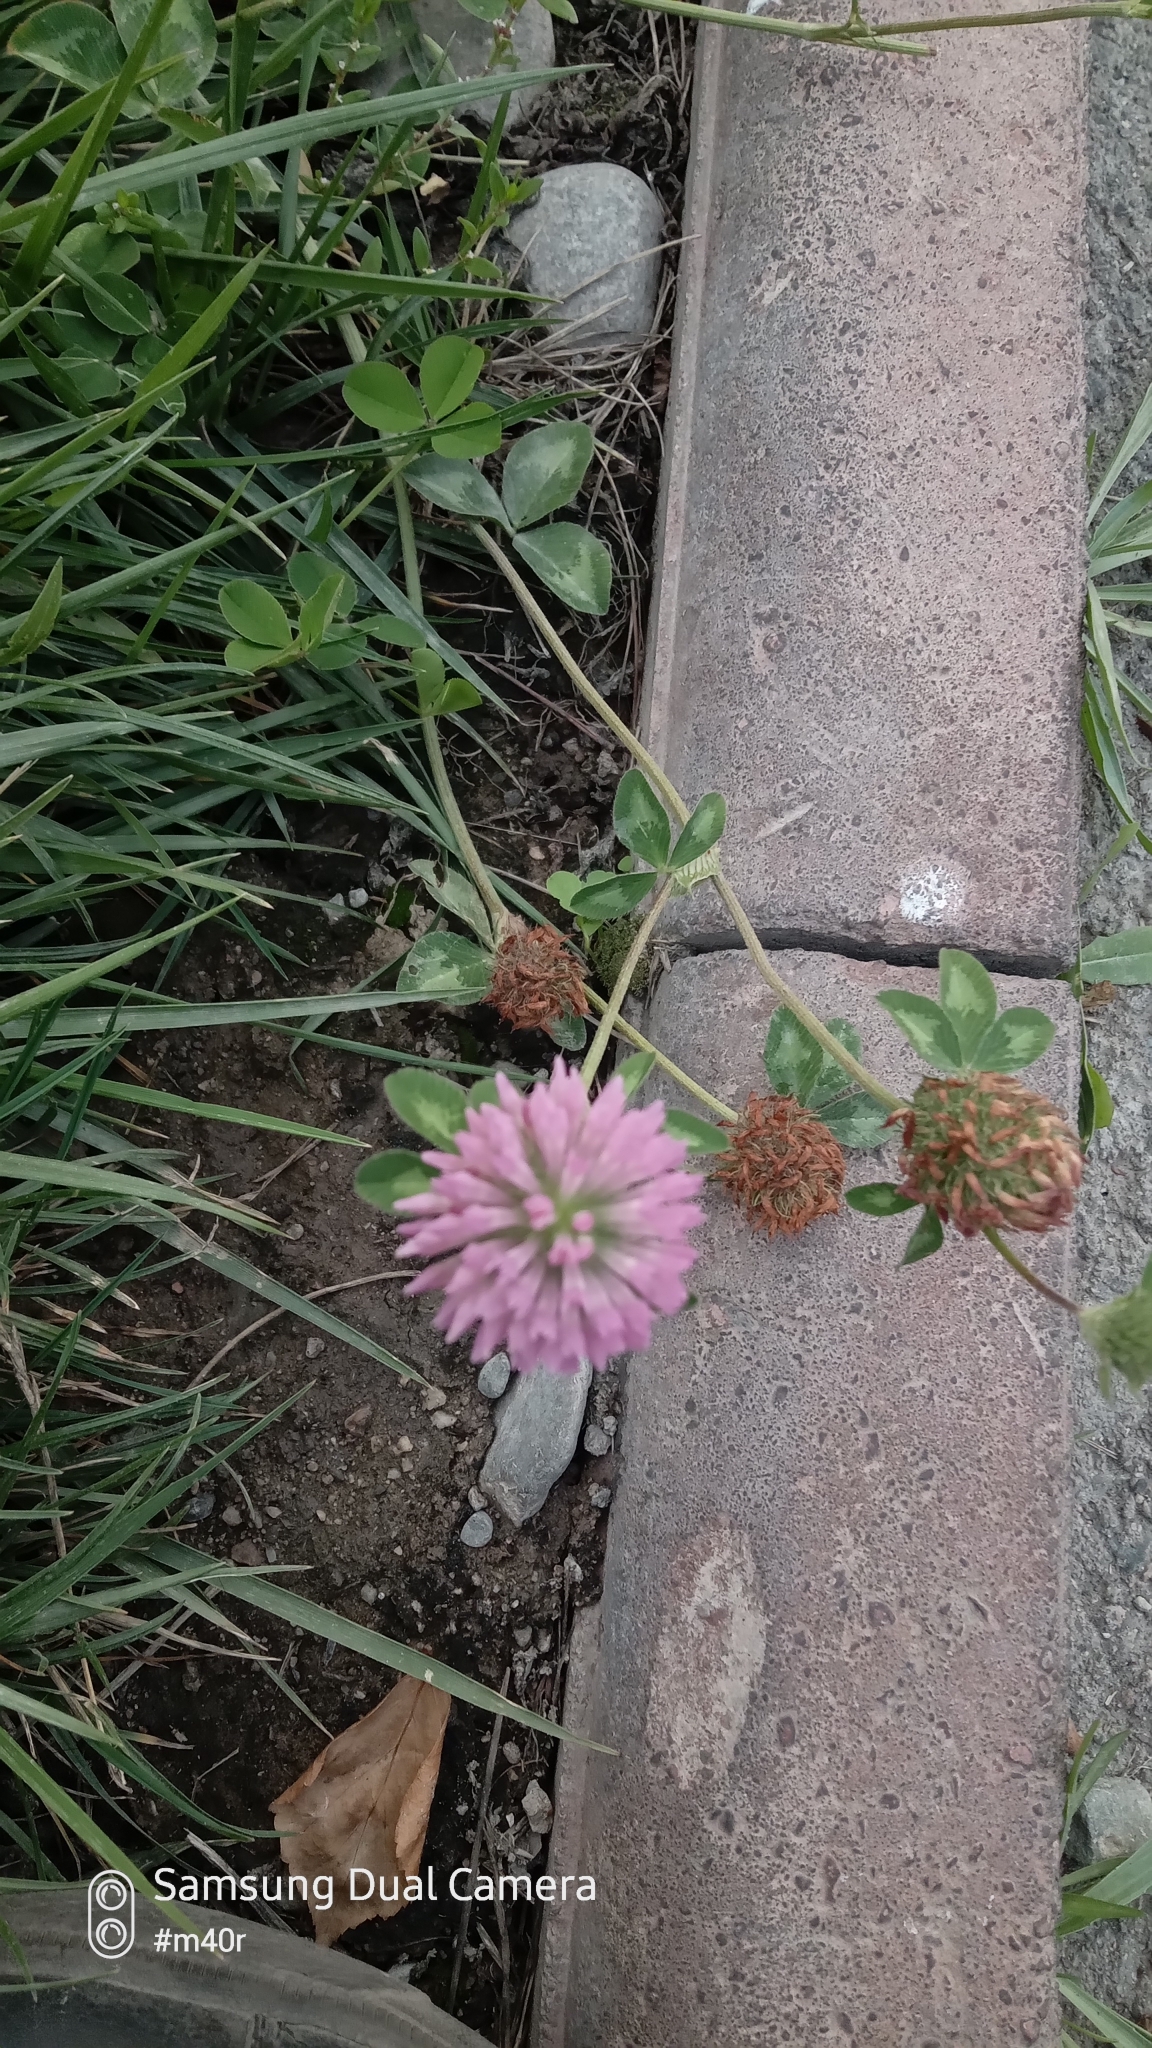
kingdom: Plantae
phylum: Tracheophyta
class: Magnoliopsida
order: Fabales
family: Fabaceae
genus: Trifolium
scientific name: Trifolium pratense
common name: Red clover
